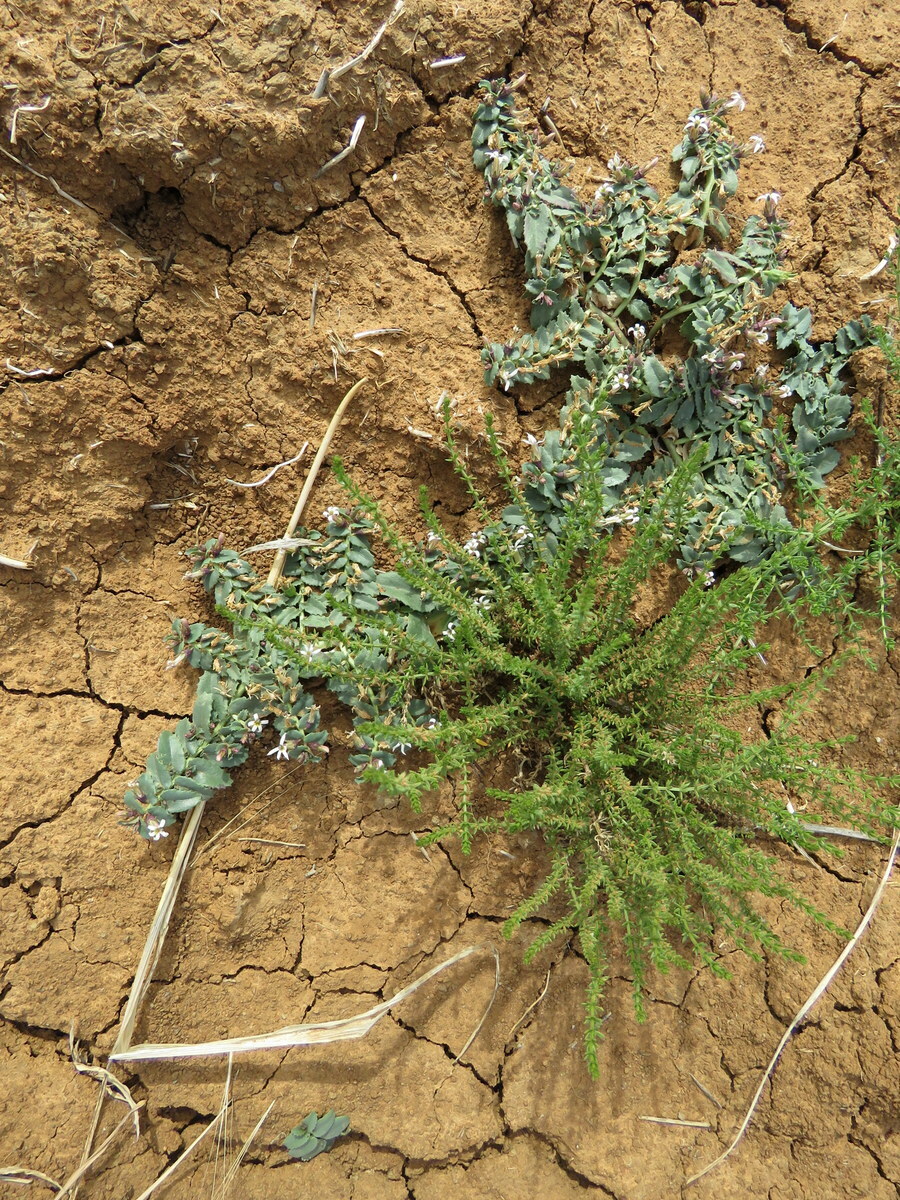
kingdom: Plantae
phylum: Tracheophyta
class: Magnoliopsida
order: Asterales
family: Campanulaceae
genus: Lobelia
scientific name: Lobelia concolor
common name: Poison pratia
